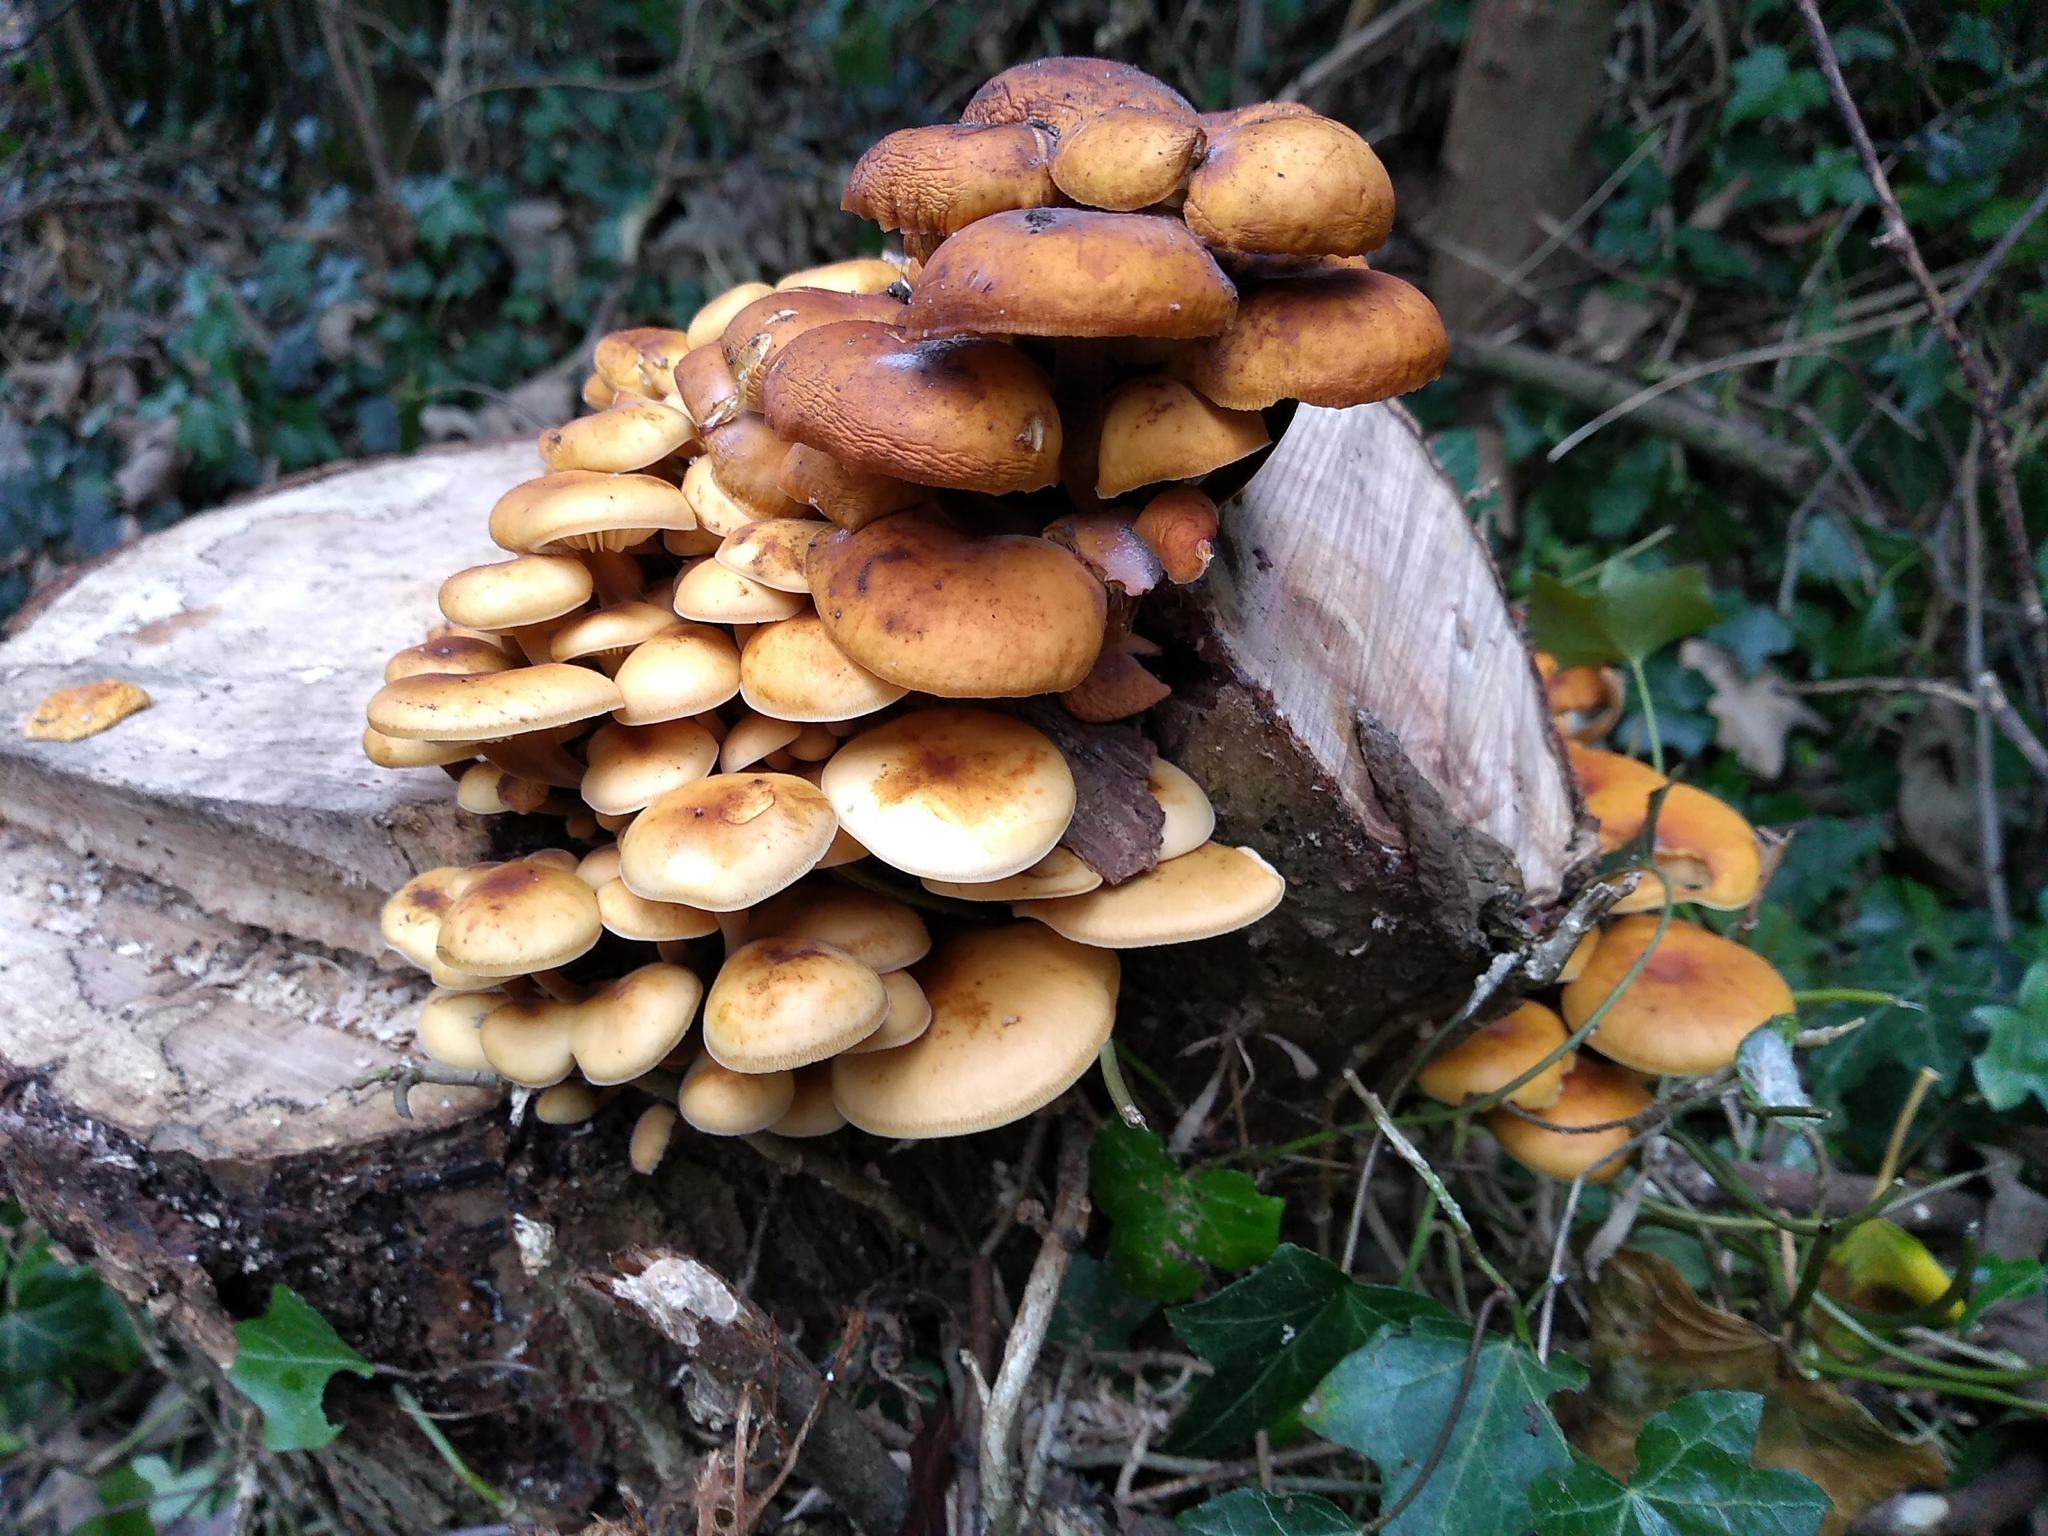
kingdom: Fungi
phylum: Basidiomycota
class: Agaricomycetes
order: Agaricales
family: Physalacriaceae
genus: Flammulina
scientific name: Flammulina
